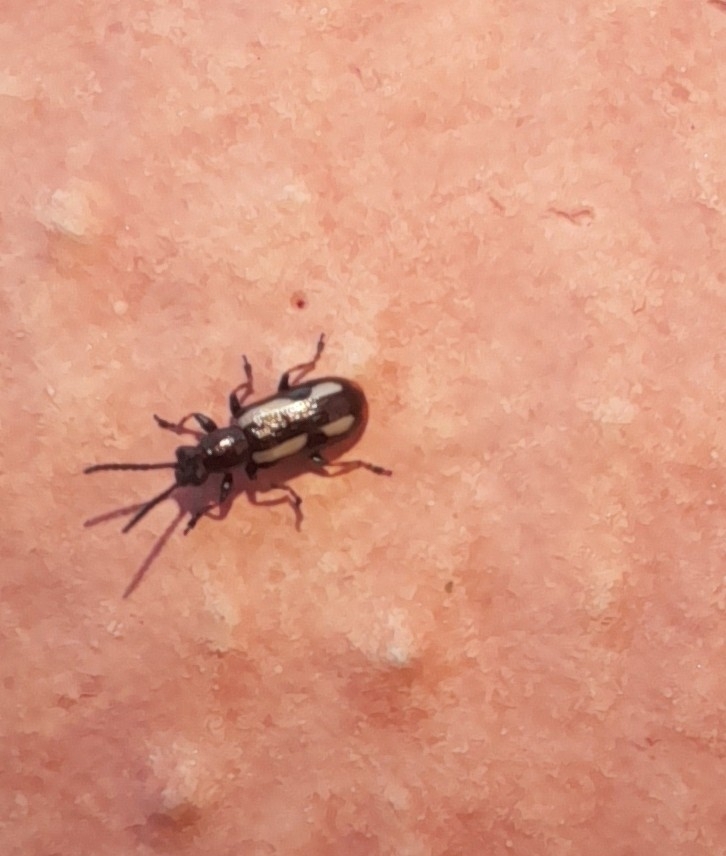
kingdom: Animalia
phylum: Arthropoda
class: Insecta
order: Coleoptera
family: Chrysomelidae
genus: Crioceris
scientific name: Crioceris macilenta
